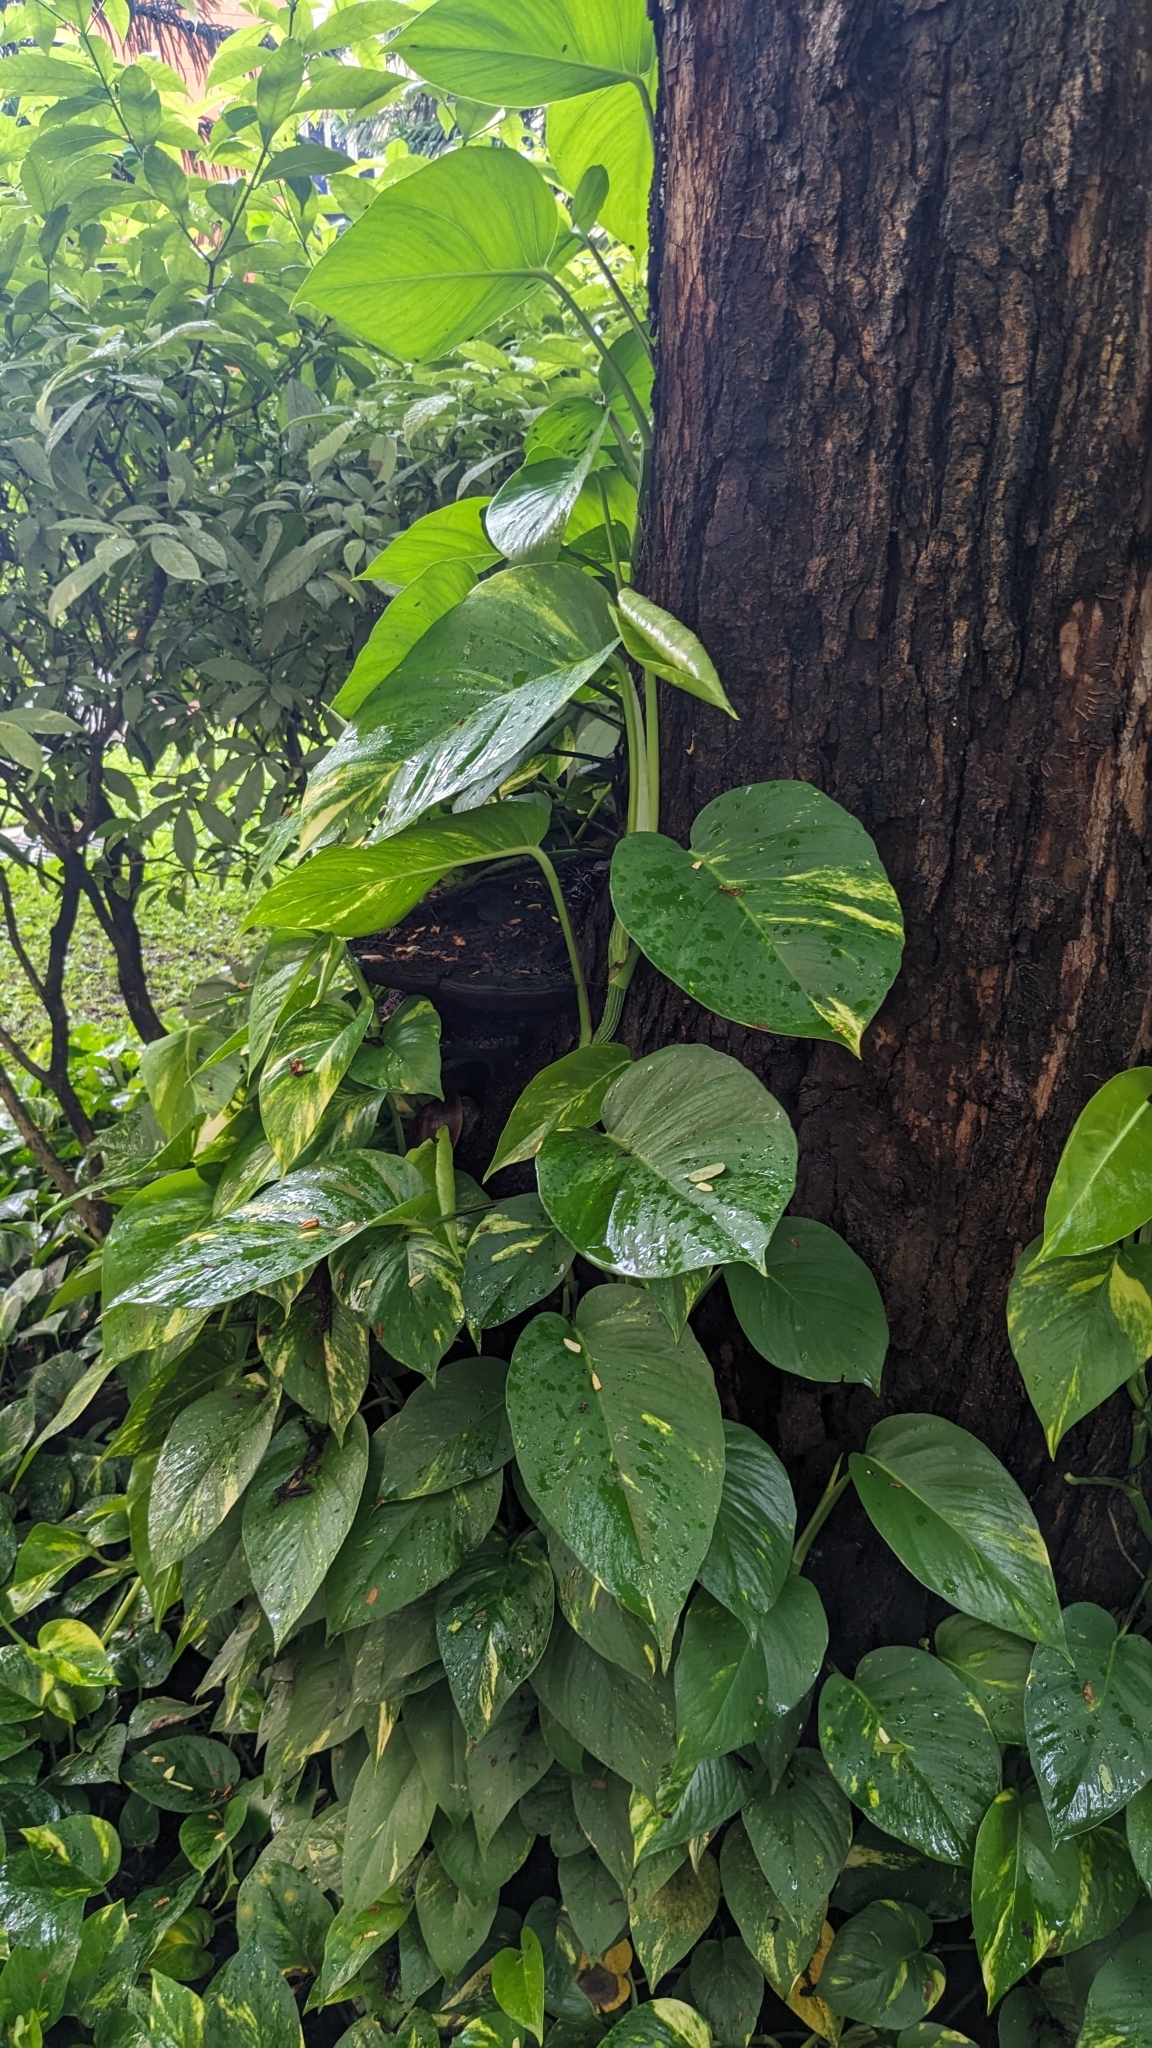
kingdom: Plantae
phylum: Tracheophyta
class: Liliopsida
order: Alismatales
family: Araceae
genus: Epipremnum
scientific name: Epipremnum aureum
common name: Golden hunter's-robe
